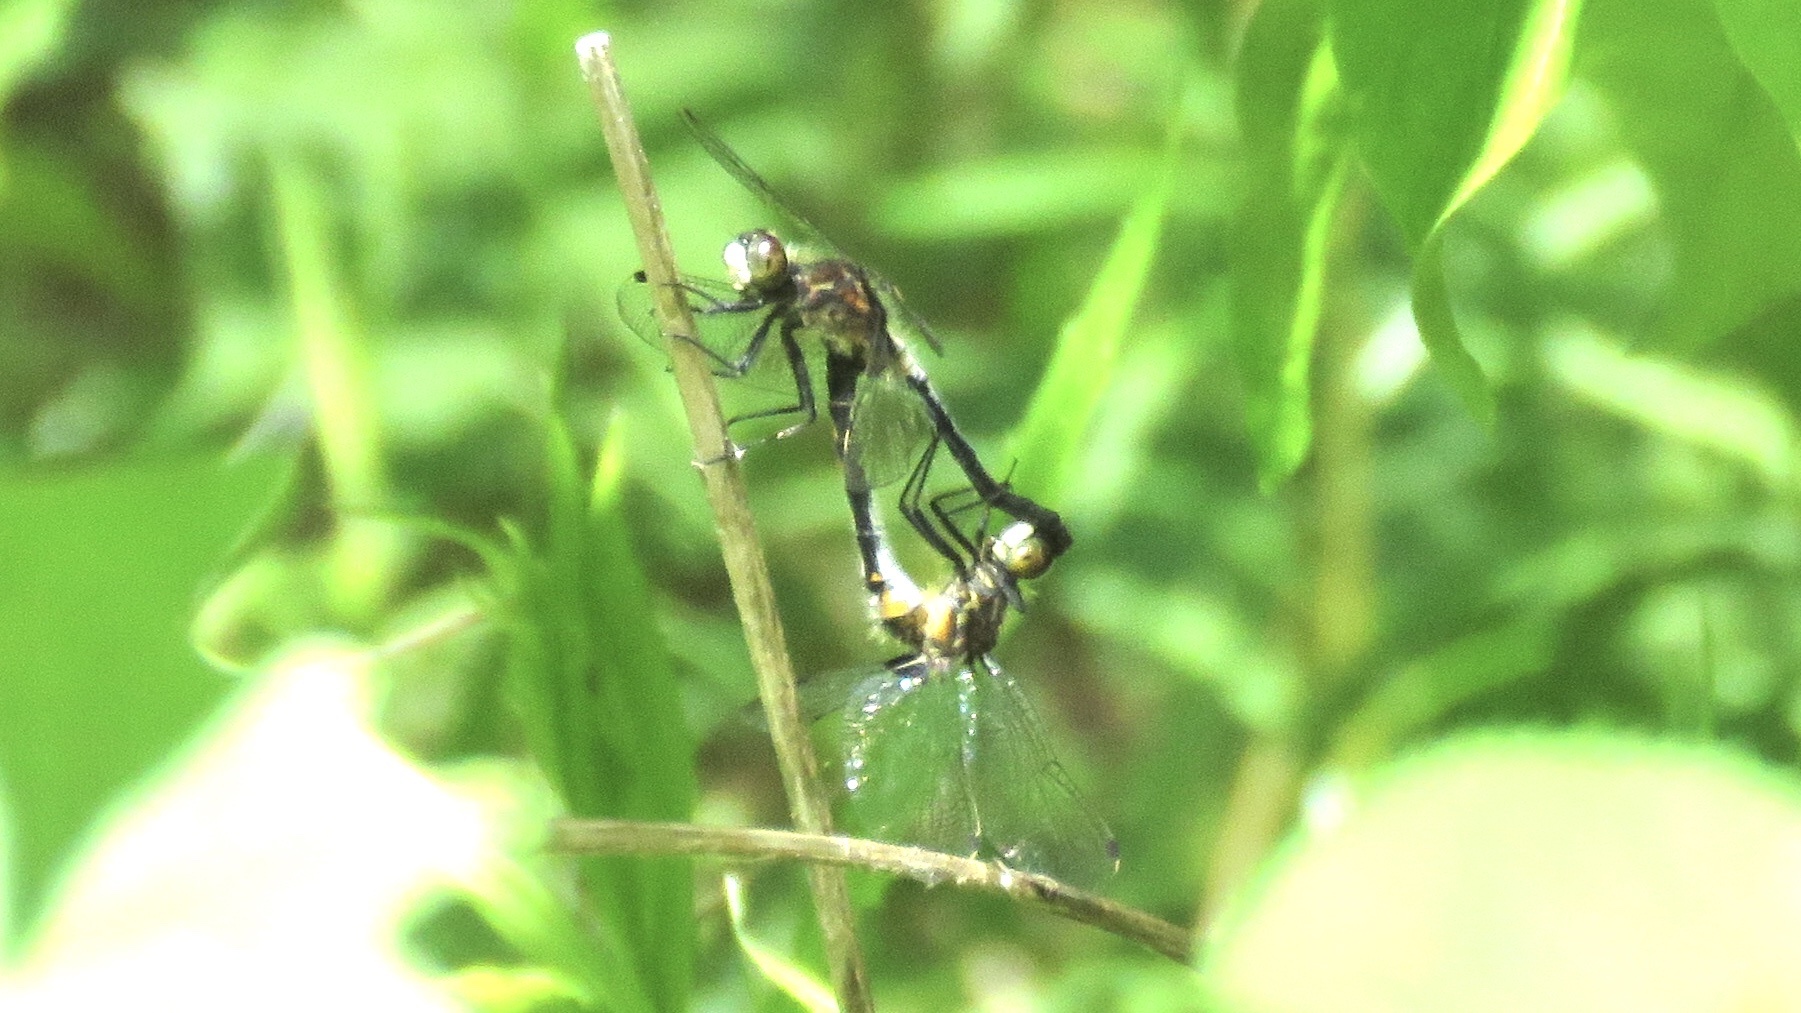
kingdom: Animalia
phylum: Arthropoda
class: Insecta
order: Odonata
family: Libellulidae
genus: Leucorrhinia
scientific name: Leucorrhinia proxima
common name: Belted whiteface
